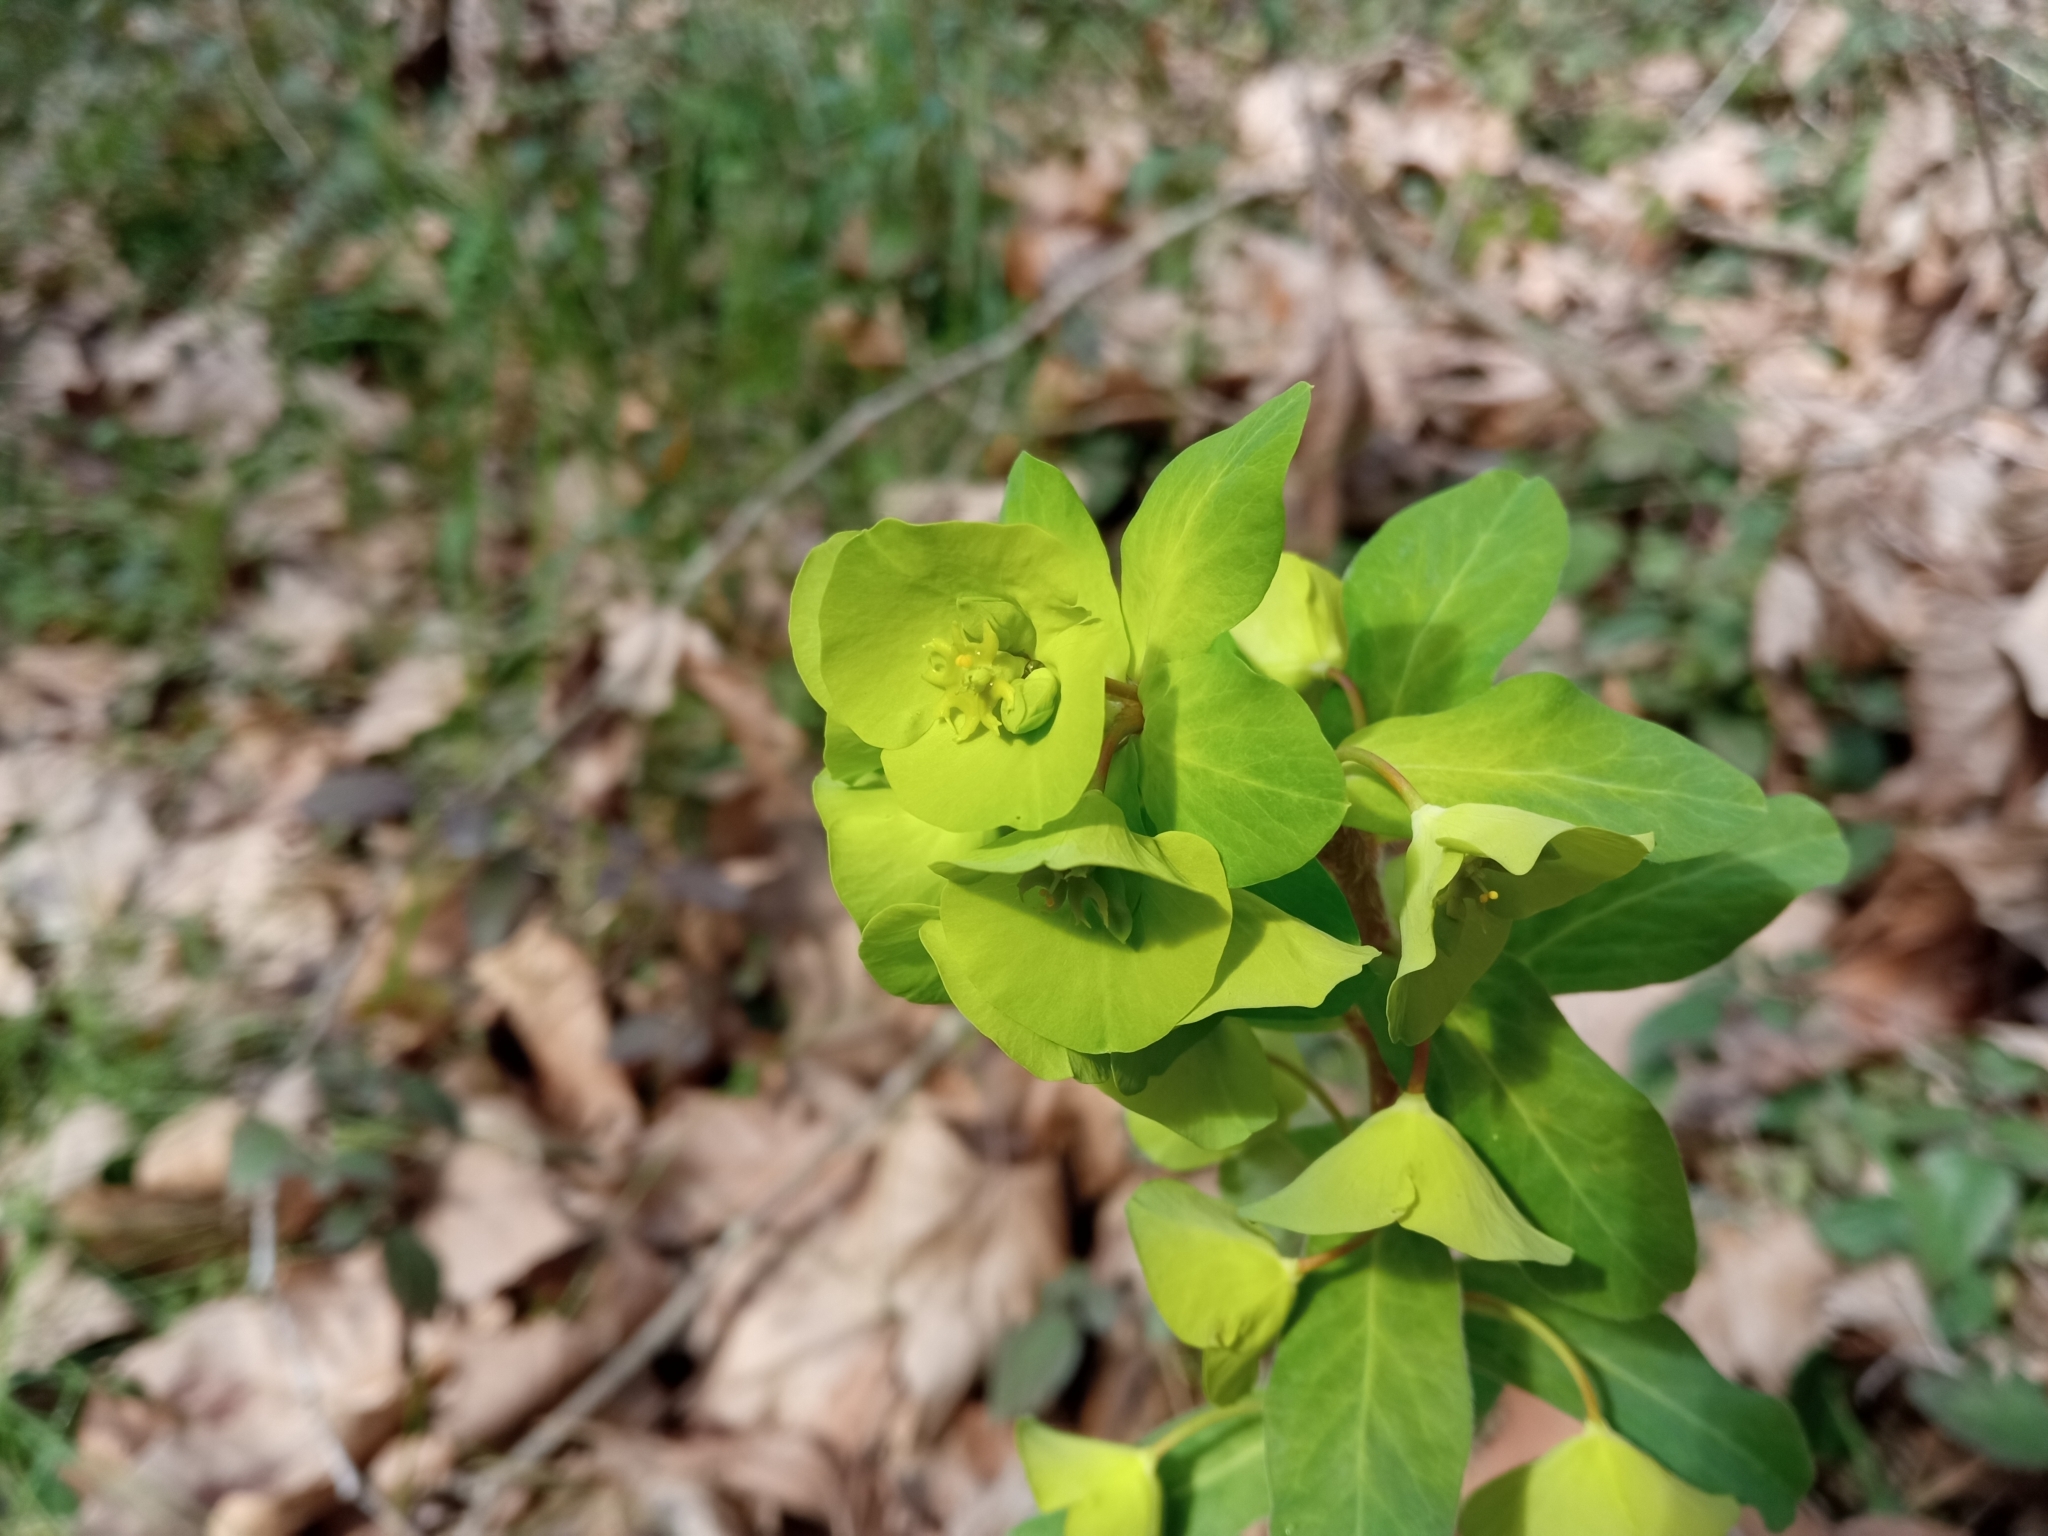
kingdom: Plantae
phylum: Tracheophyta
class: Magnoliopsida
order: Malpighiales
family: Euphorbiaceae
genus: Euphorbia
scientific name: Euphorbia amygdaloides
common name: Wood spurge
